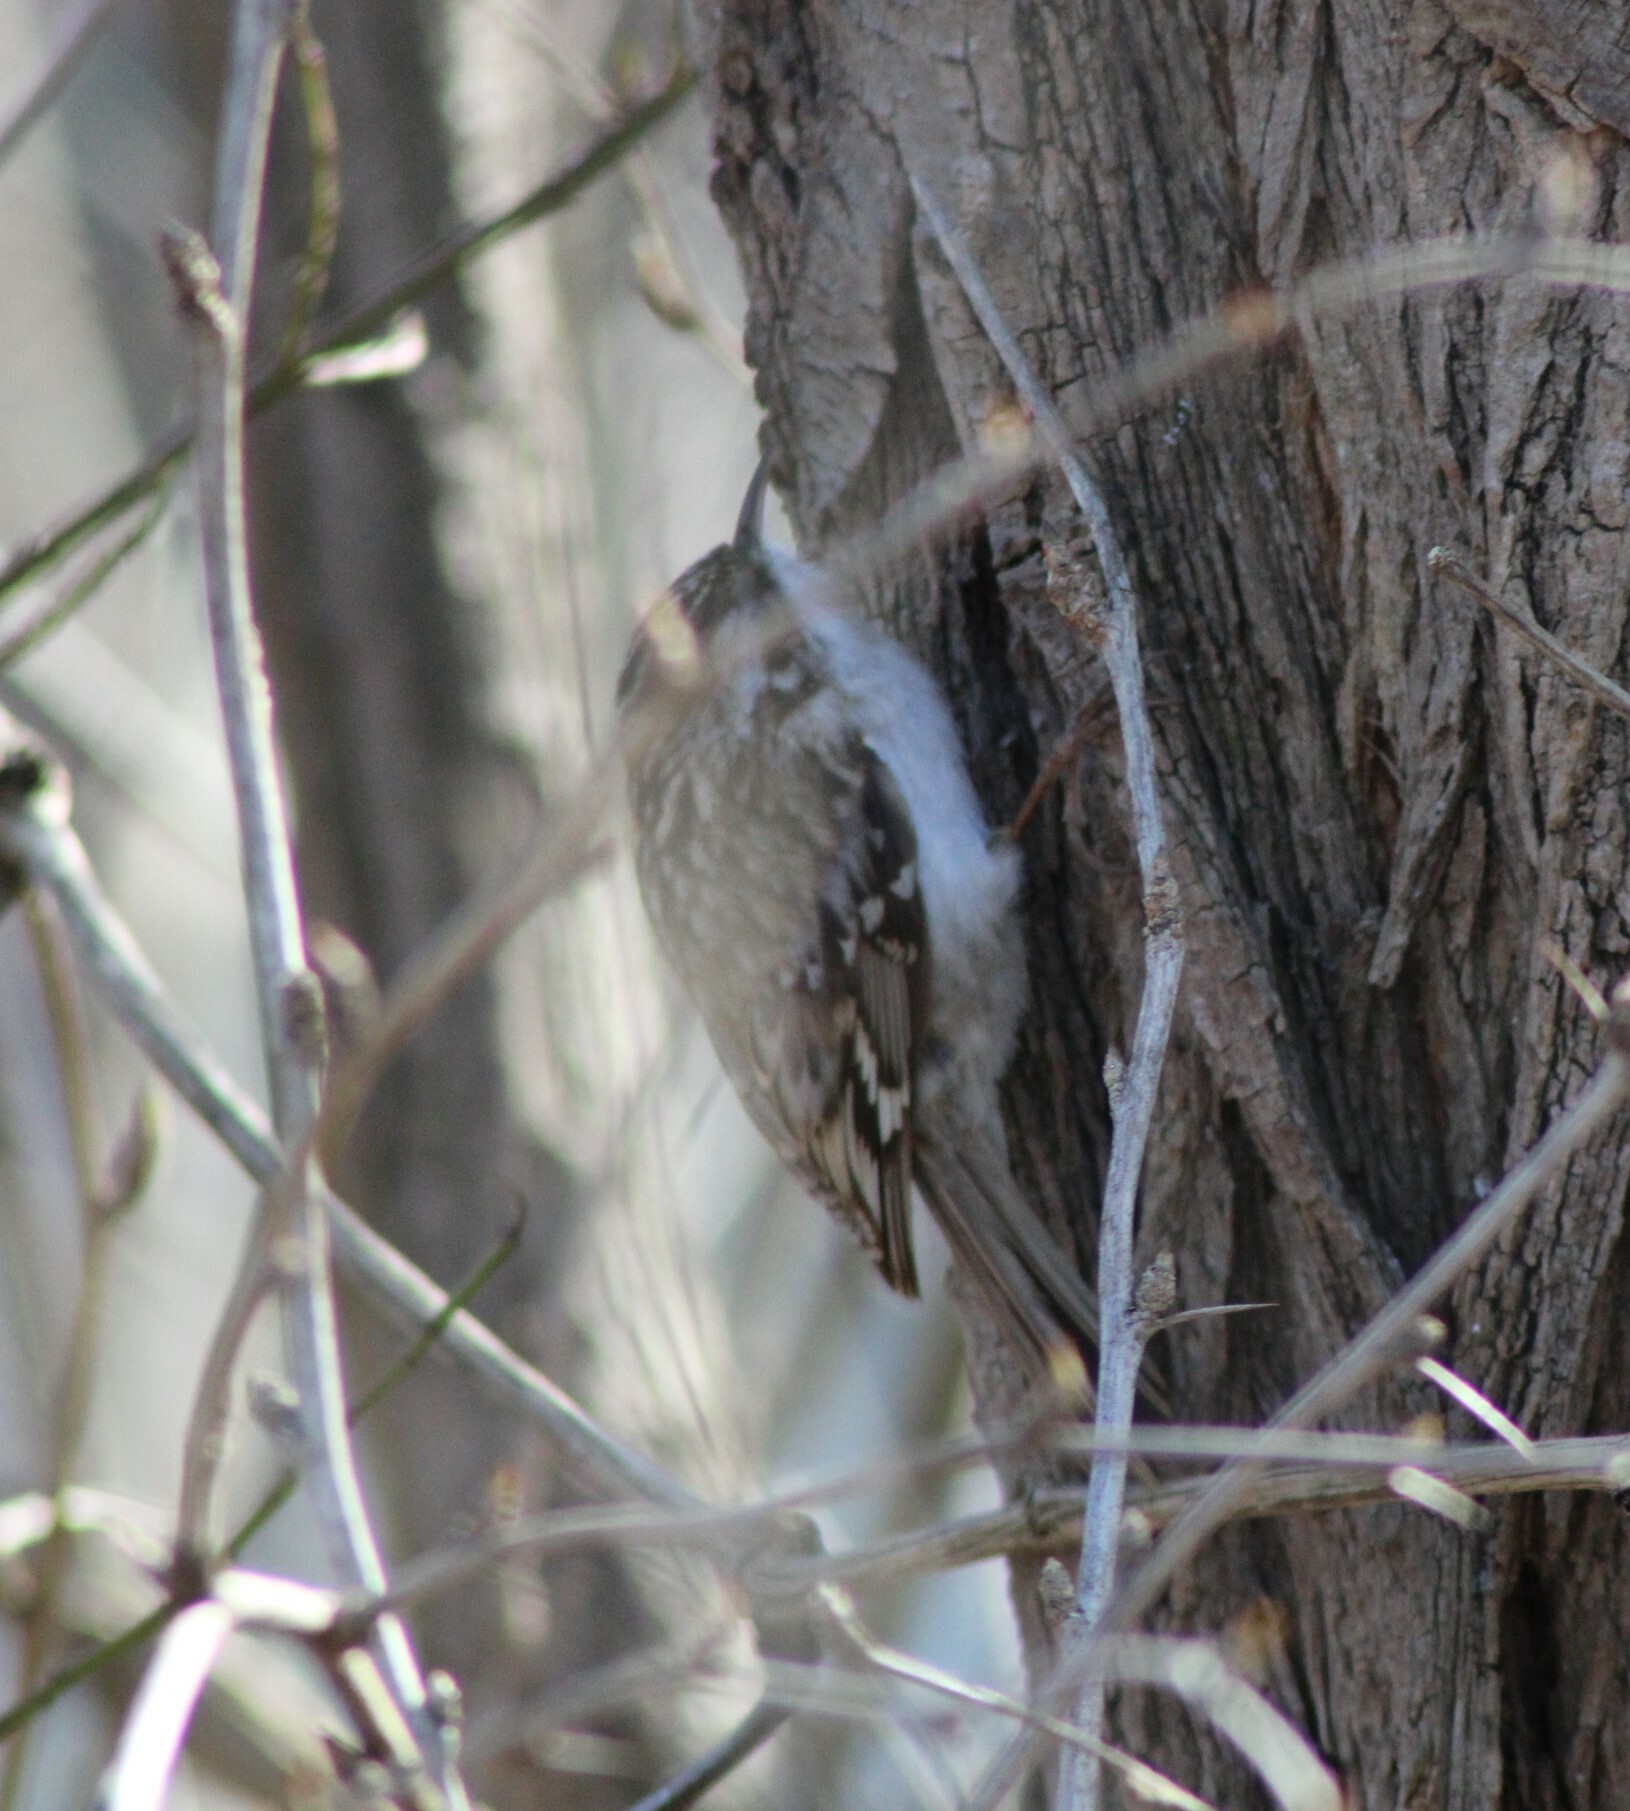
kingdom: Animalia
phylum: Chordata
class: Aves
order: Passeriformes
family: Certhiidae
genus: Certhia
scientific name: Certhia familiaris
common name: Eurasian treecreeper
